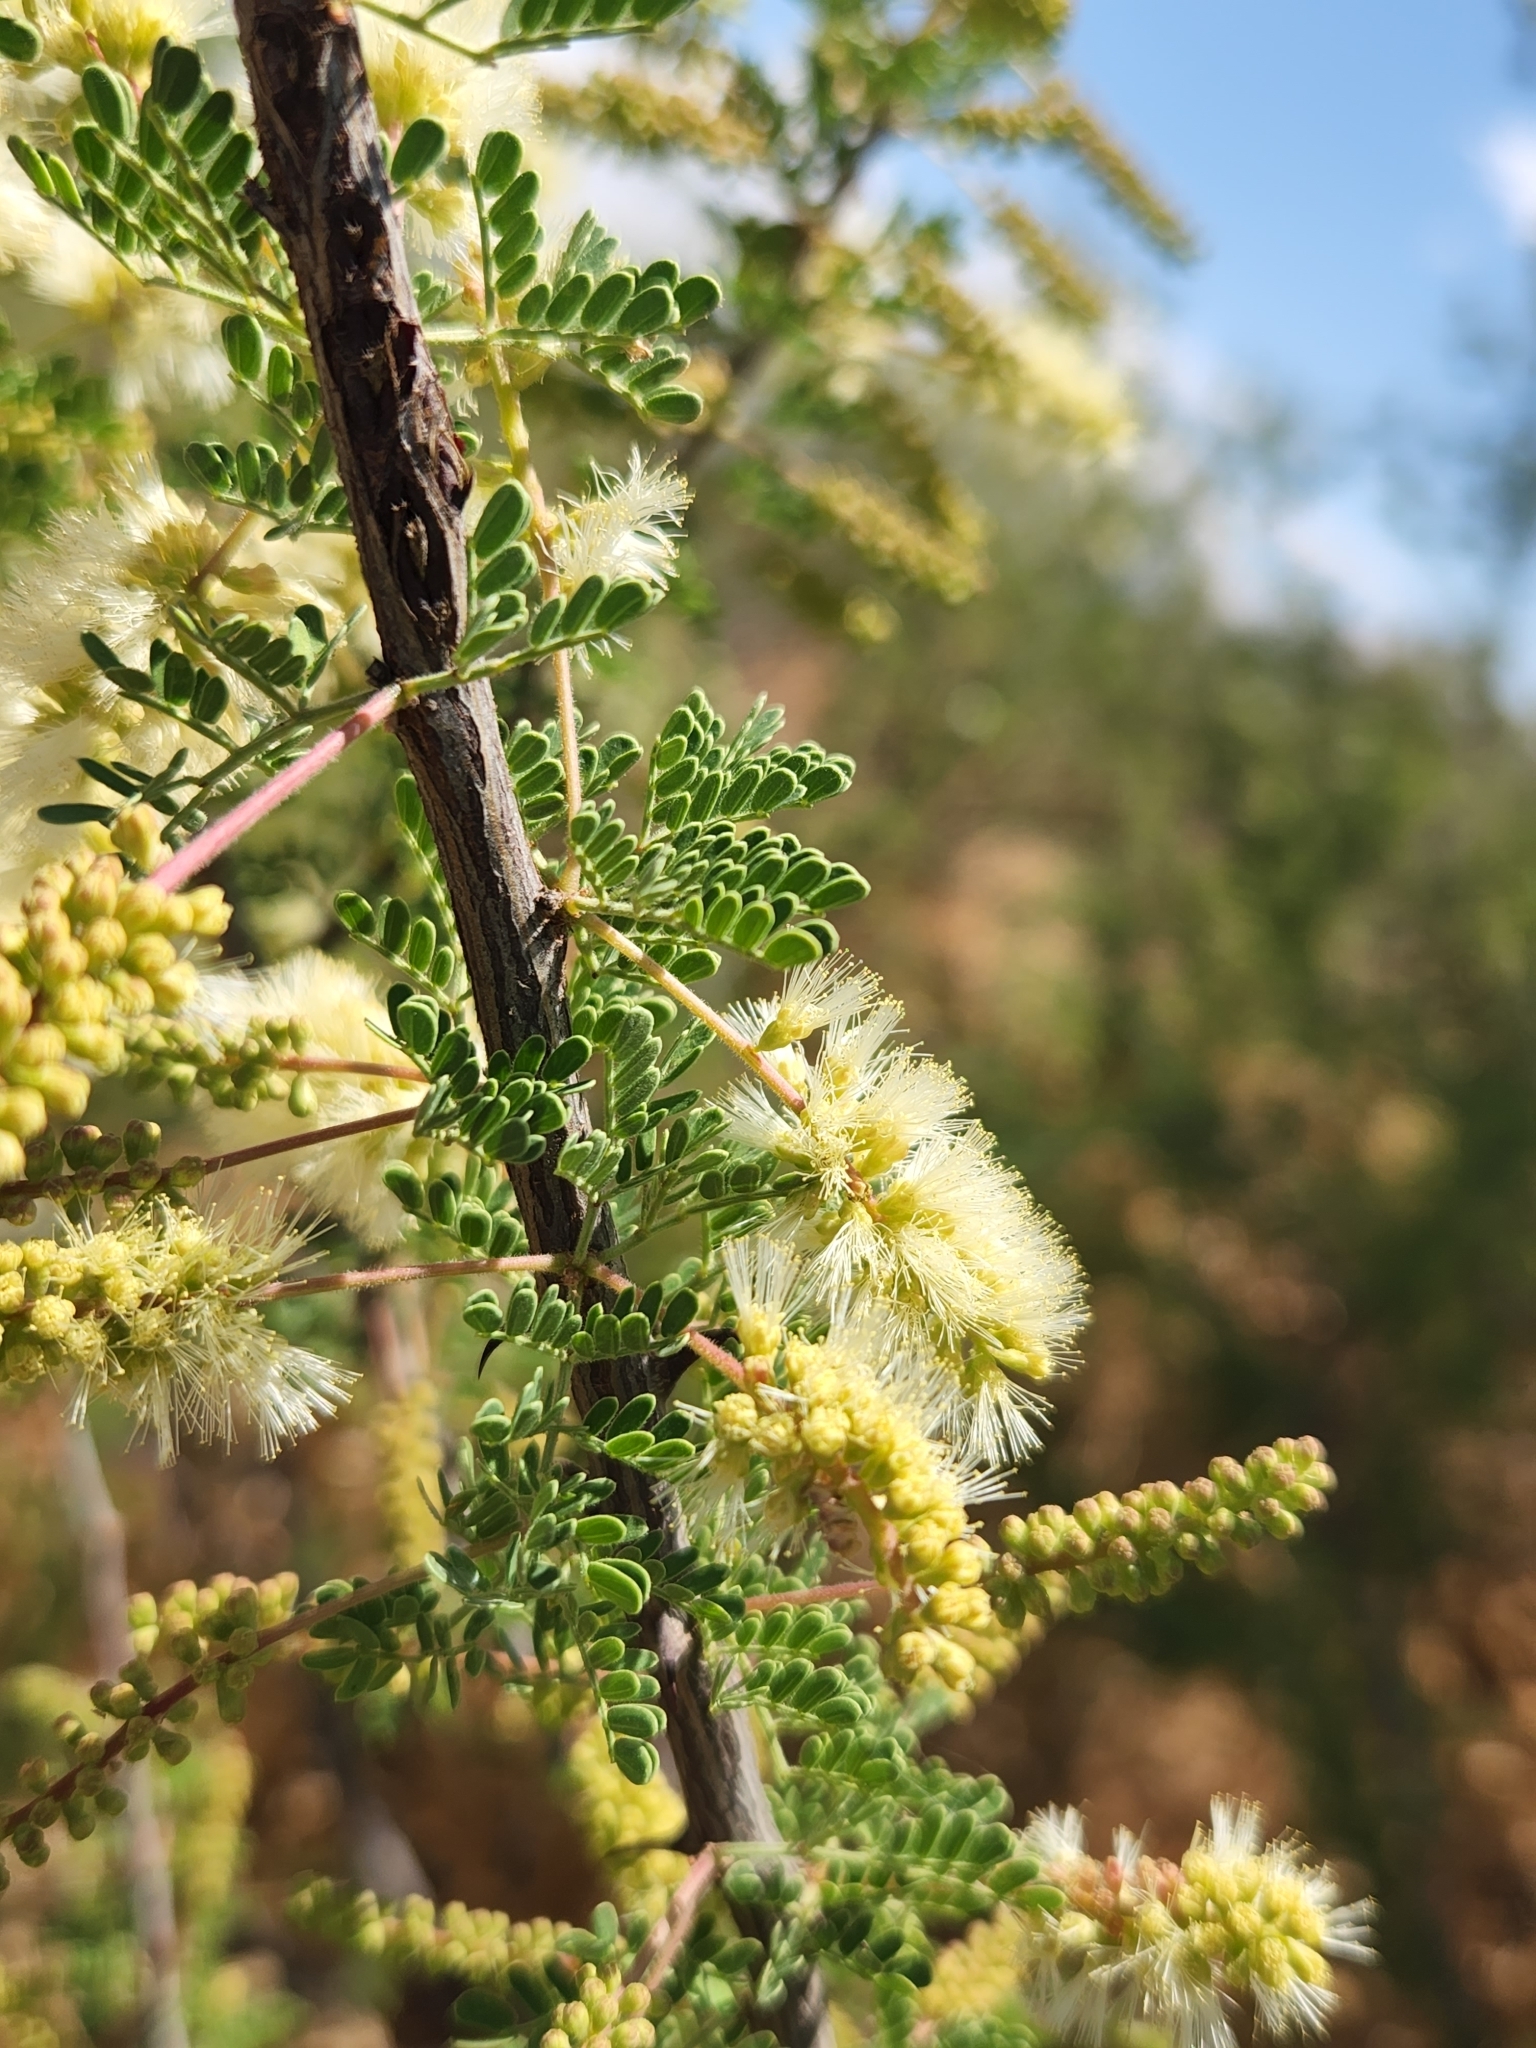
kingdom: Plantae
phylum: Tracheophyta
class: Magnoliopsida
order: Fabales
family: Fabaceae
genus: Senegalia
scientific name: Senegalia greggii
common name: Texas-mimosa
